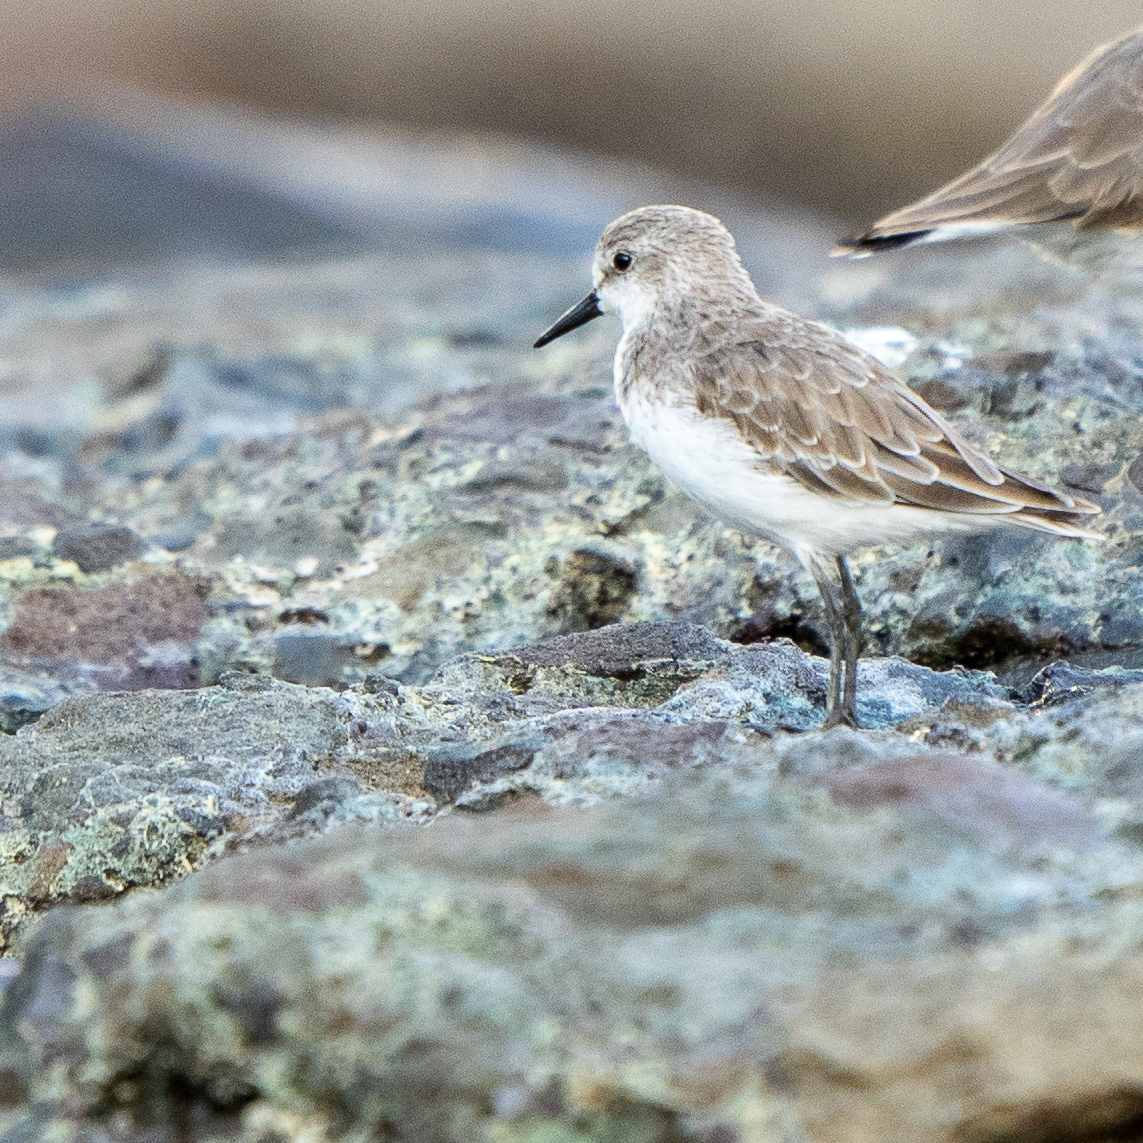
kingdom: Animalia
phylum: Chordata
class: Aves
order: Charadriiformes
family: Scolopacidae
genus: Calidris
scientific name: Calidris pusilla
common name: Semipalmated sandpiper
